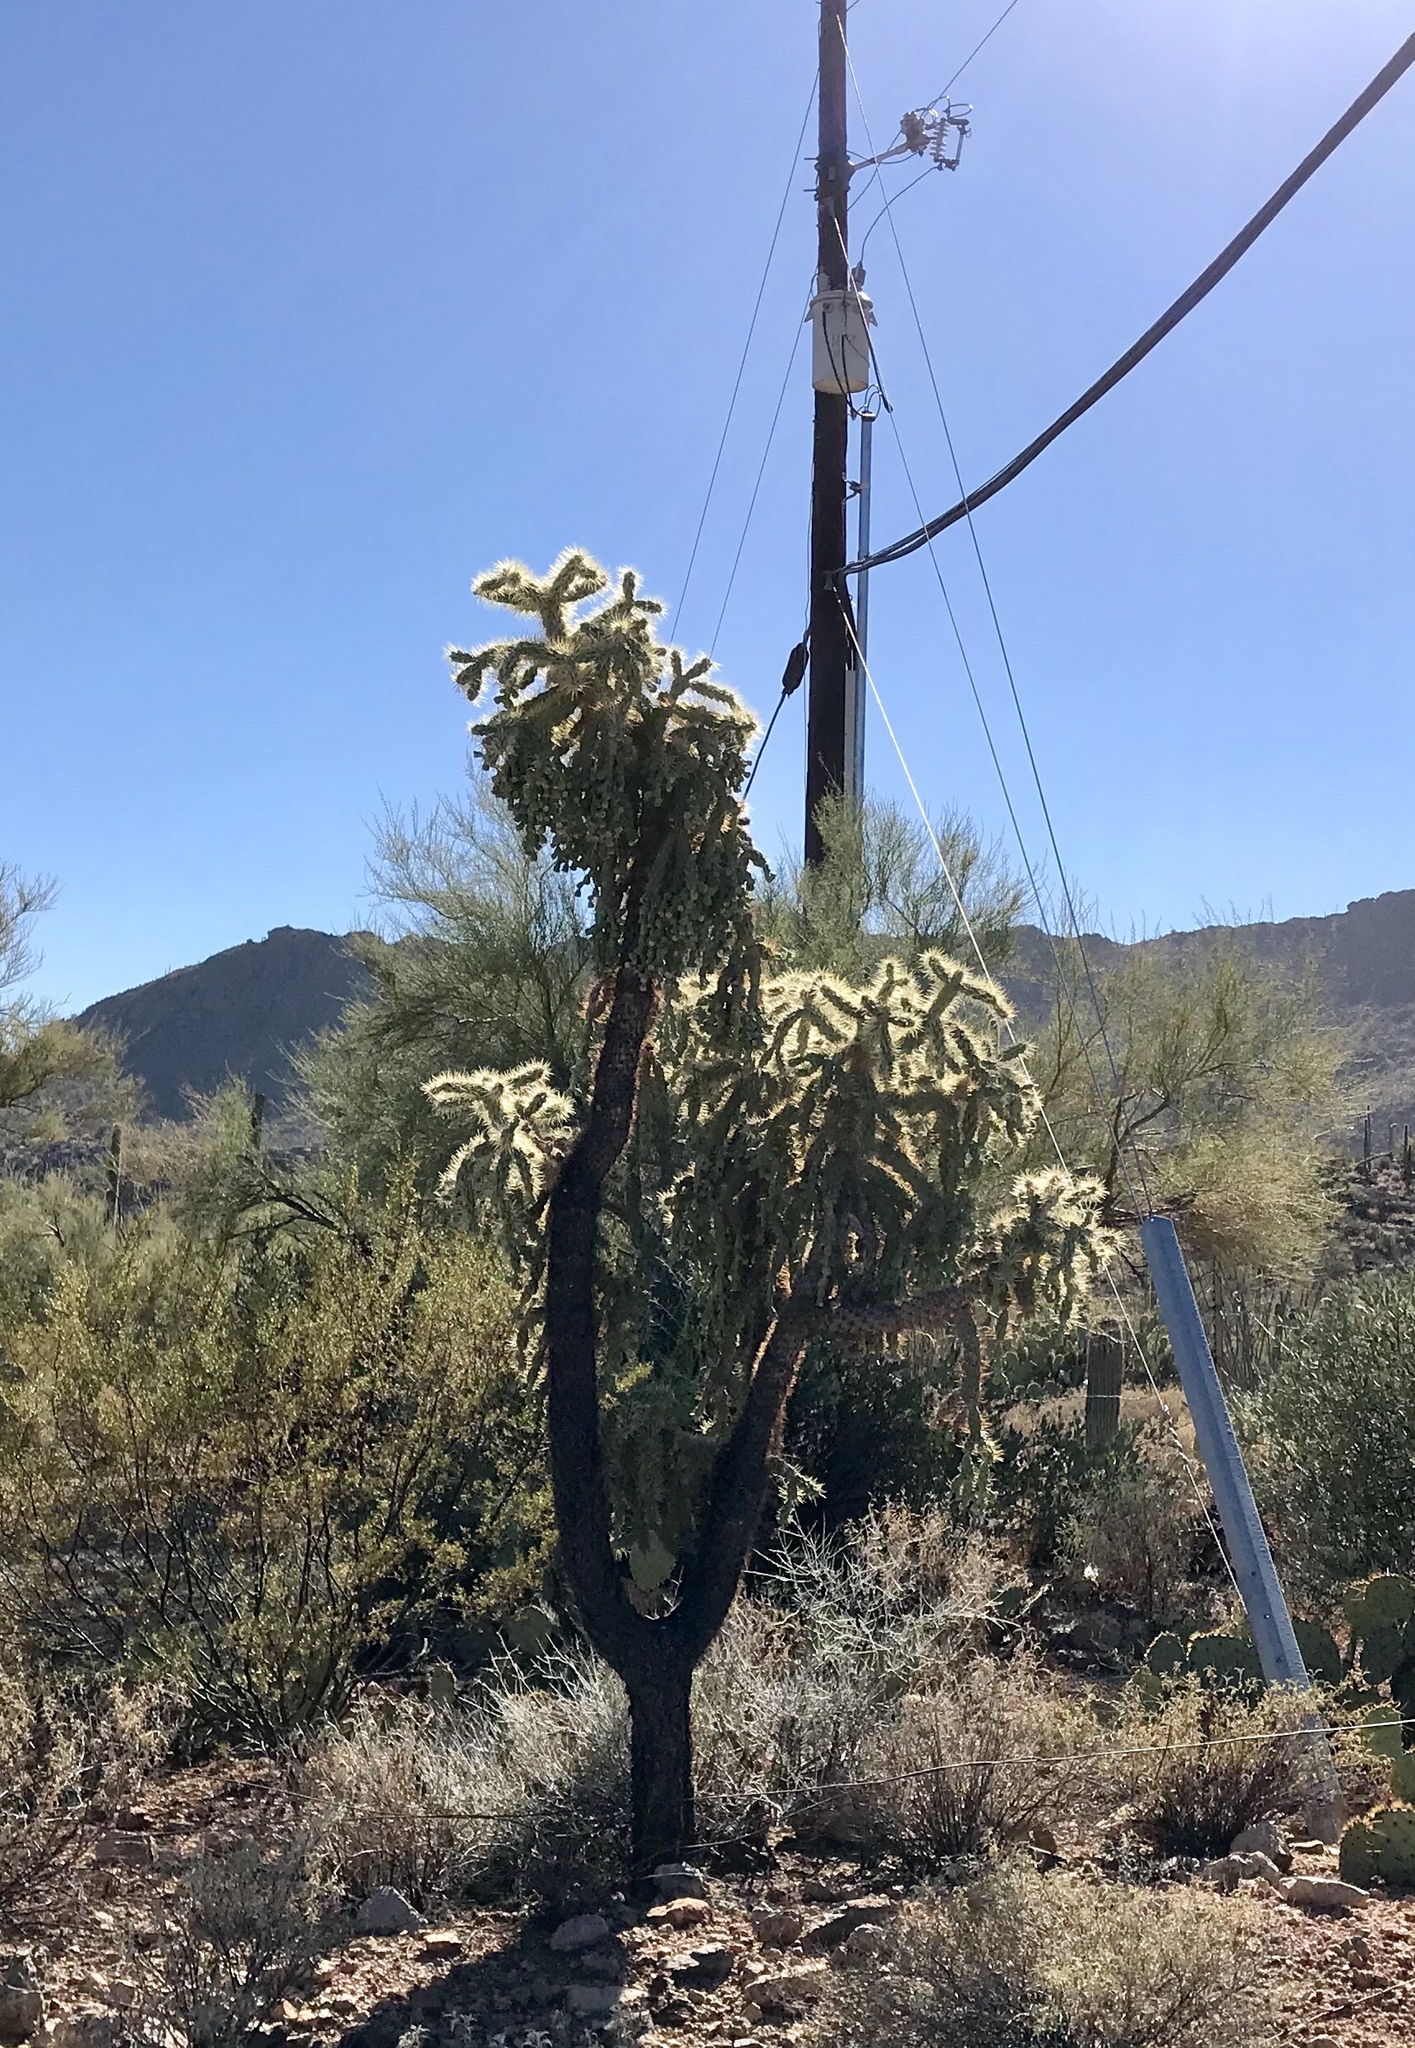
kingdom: Plantae
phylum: Tracheophyta
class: Magnoliopsida
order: Caryophyllales
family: Cactaceae
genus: Cylindropuntia
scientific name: Cylindropuntia fulgida
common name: Jumping cholla
